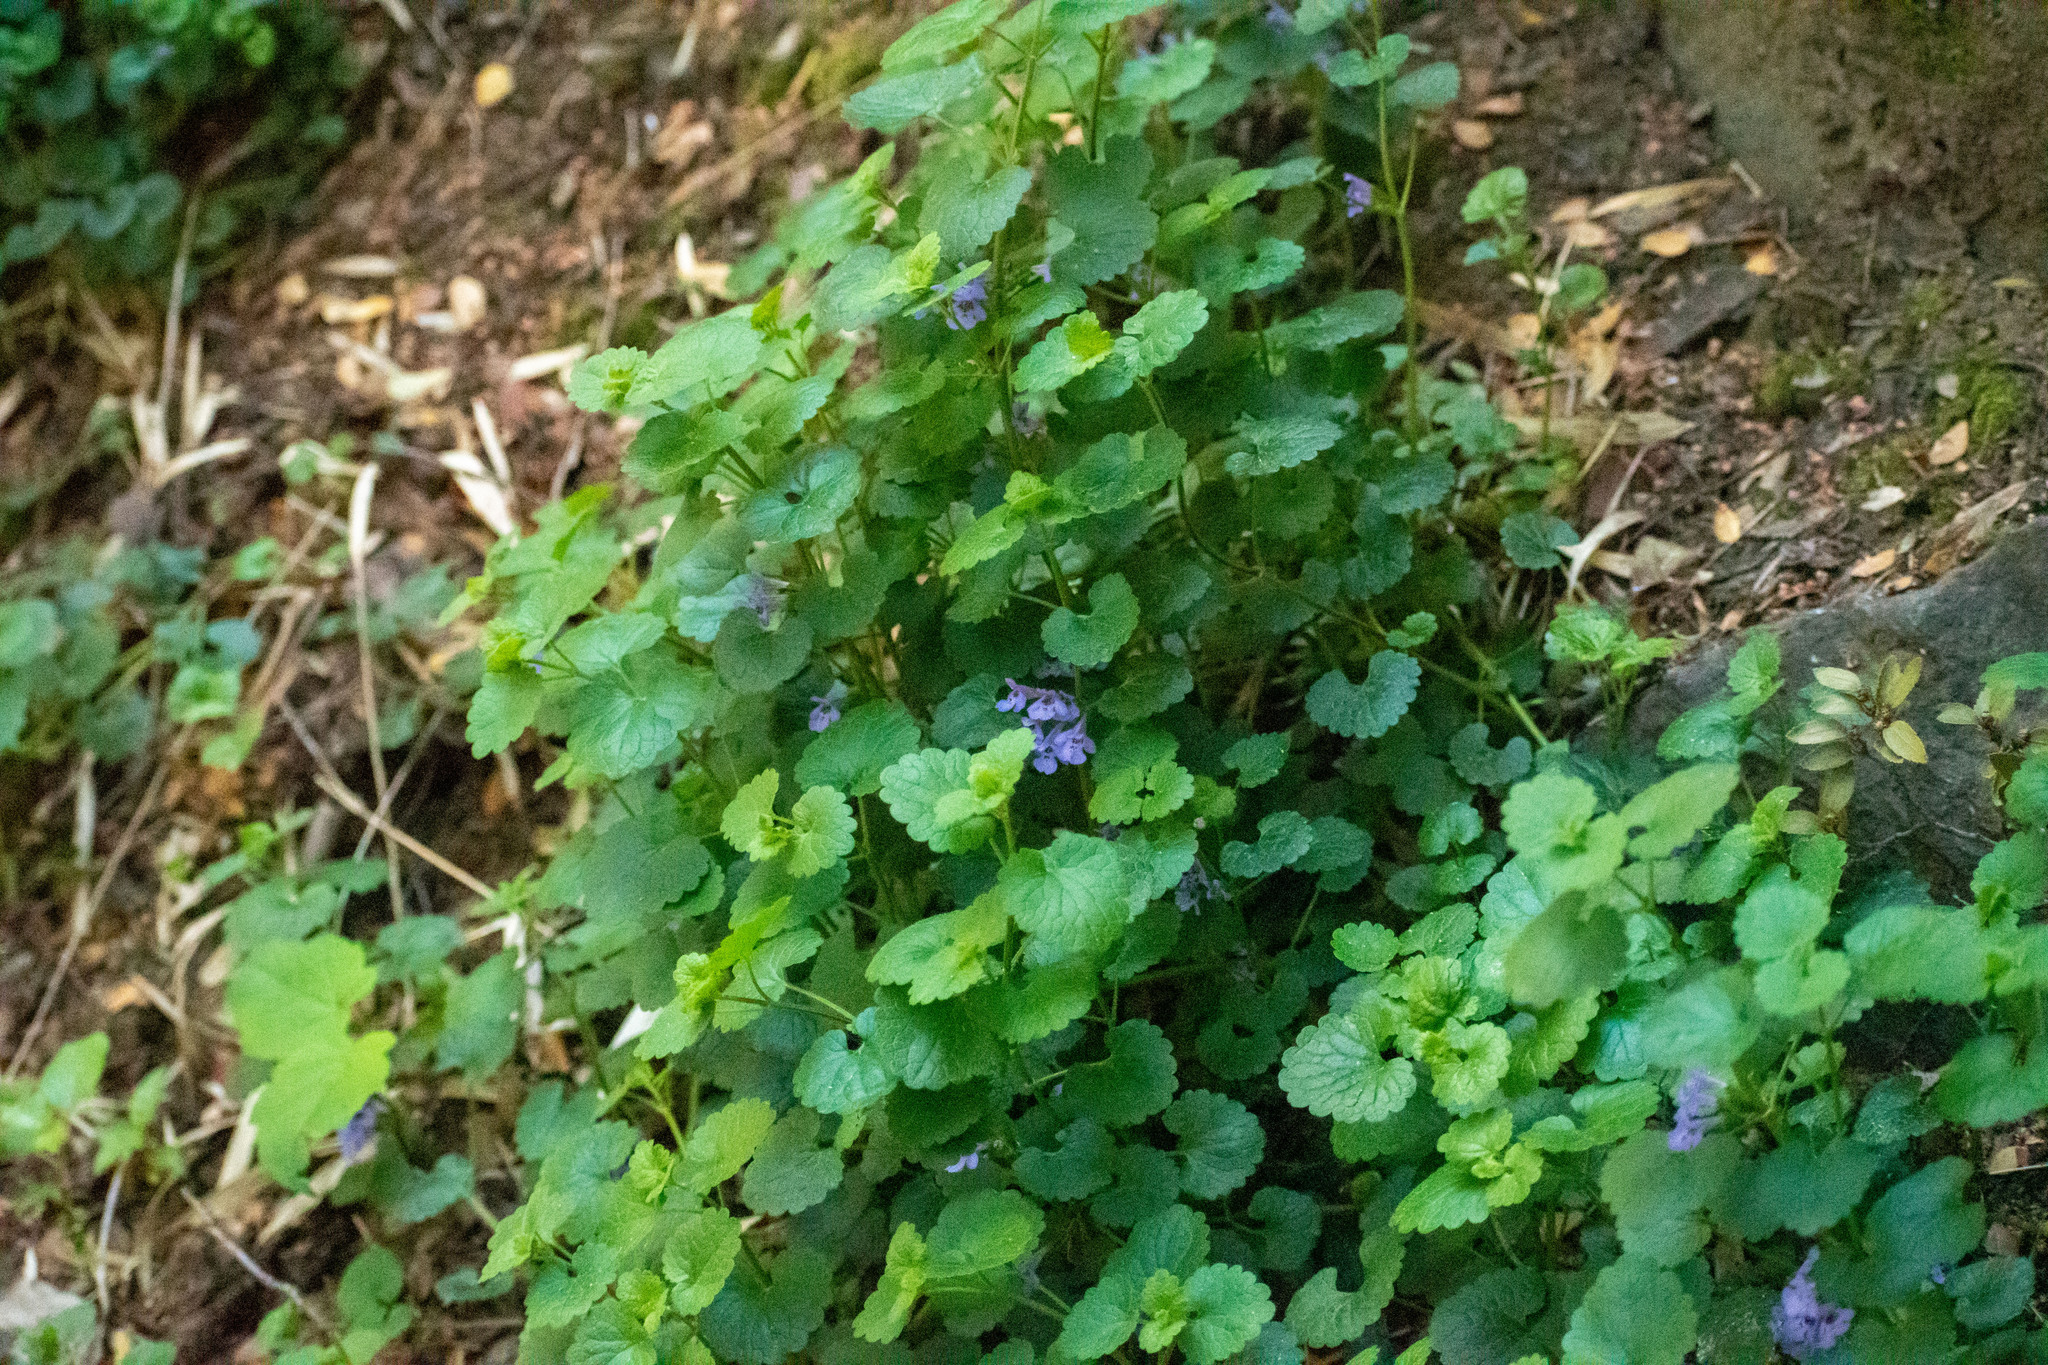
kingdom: Plantae
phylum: Tracheophyta
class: Magnoliopsida
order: Lamiales
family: Lamiaceae
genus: Glechoma
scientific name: Glechoma hederacea
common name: Ground ivy
